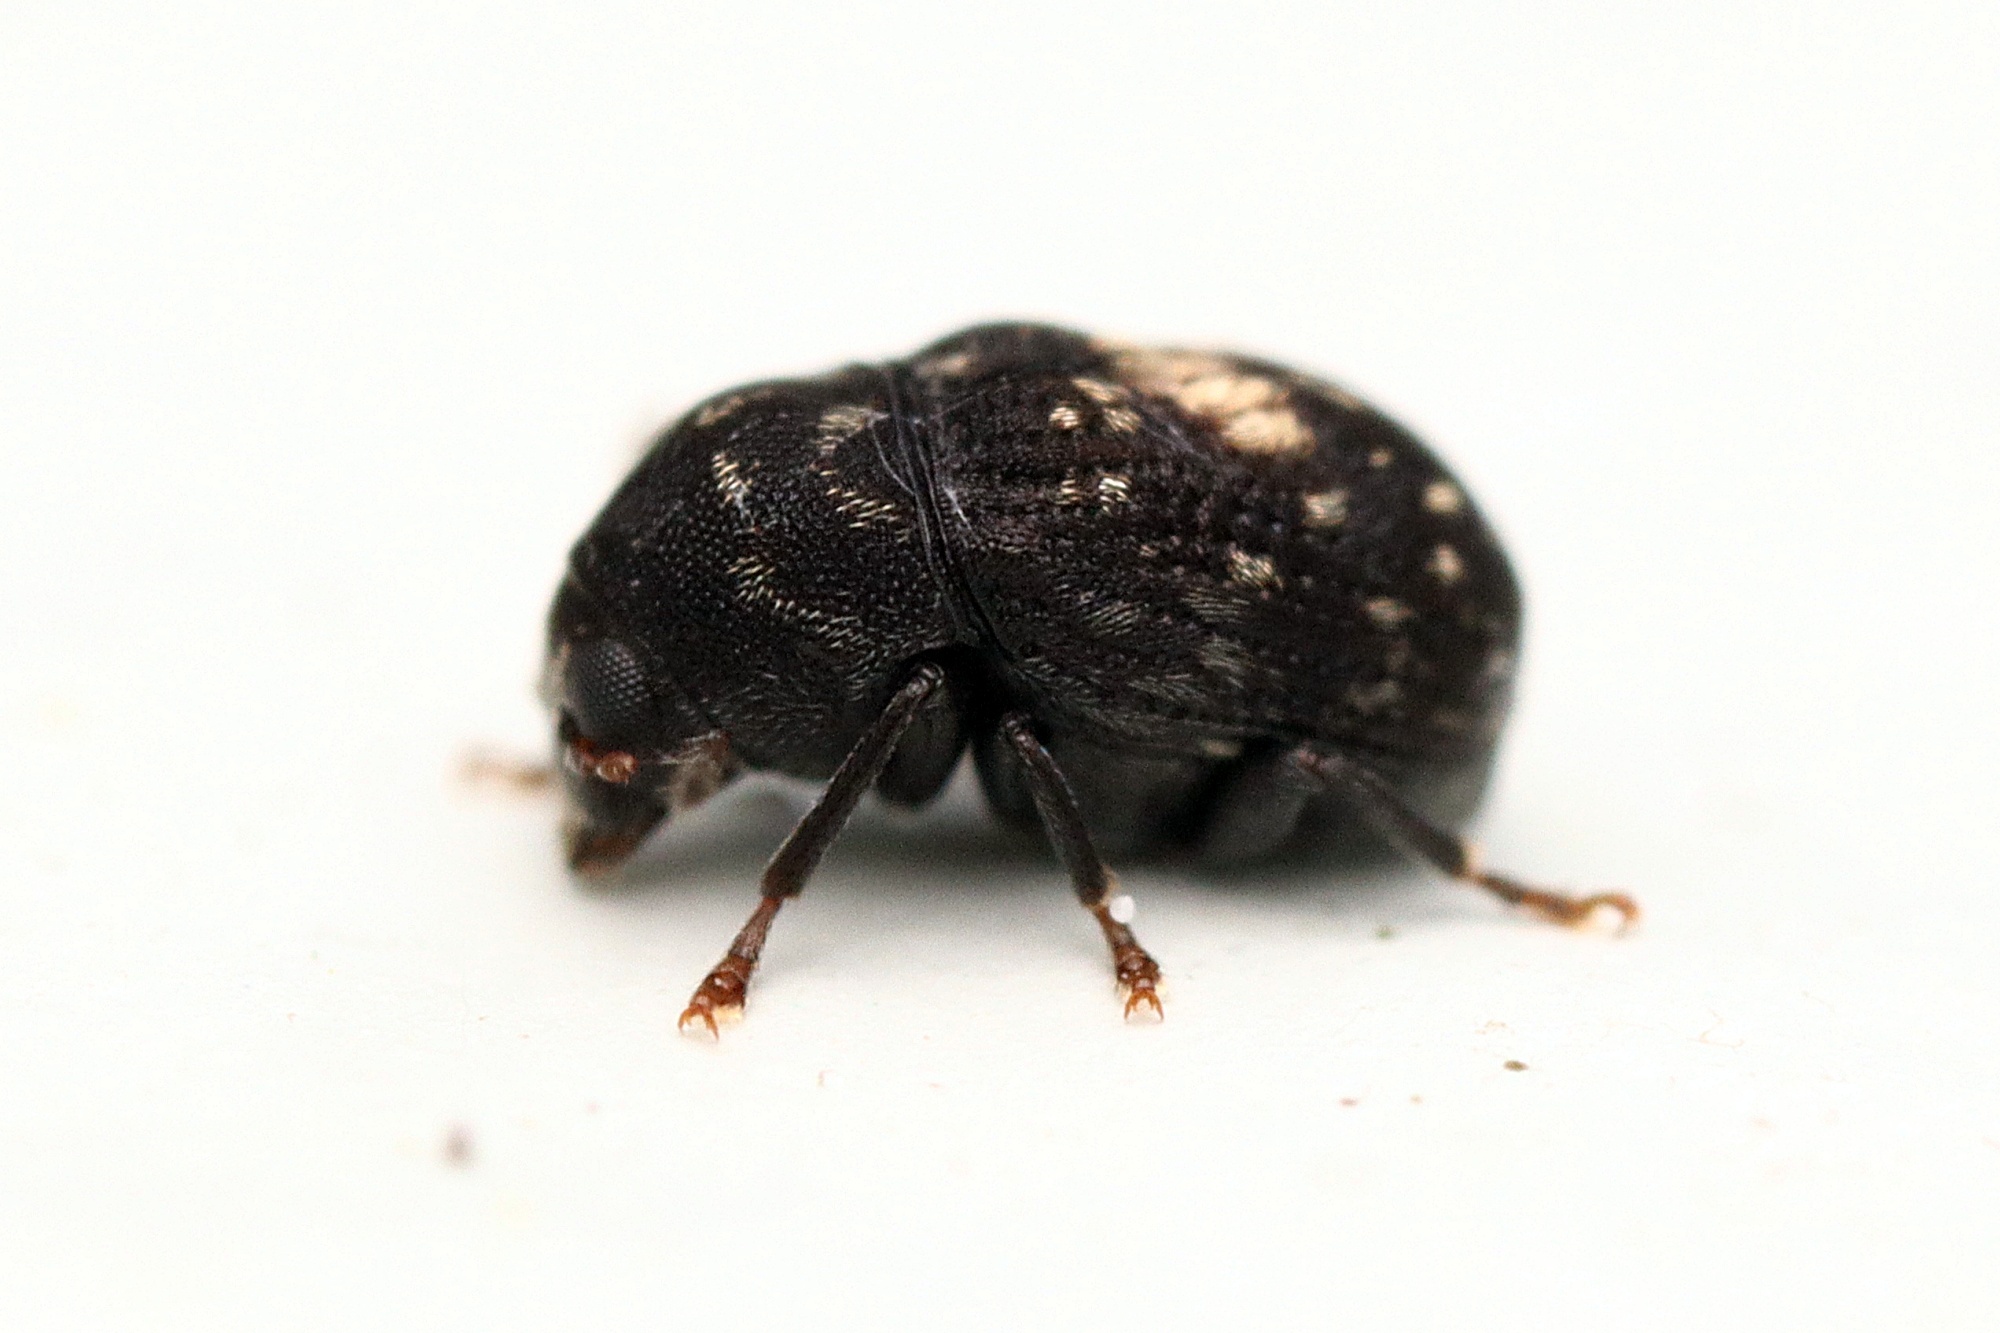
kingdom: Animalia
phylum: Arthropoda
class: Insecta
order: Coleoptera
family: Anthribidae
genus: Notochoragus
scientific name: Notochoragus
